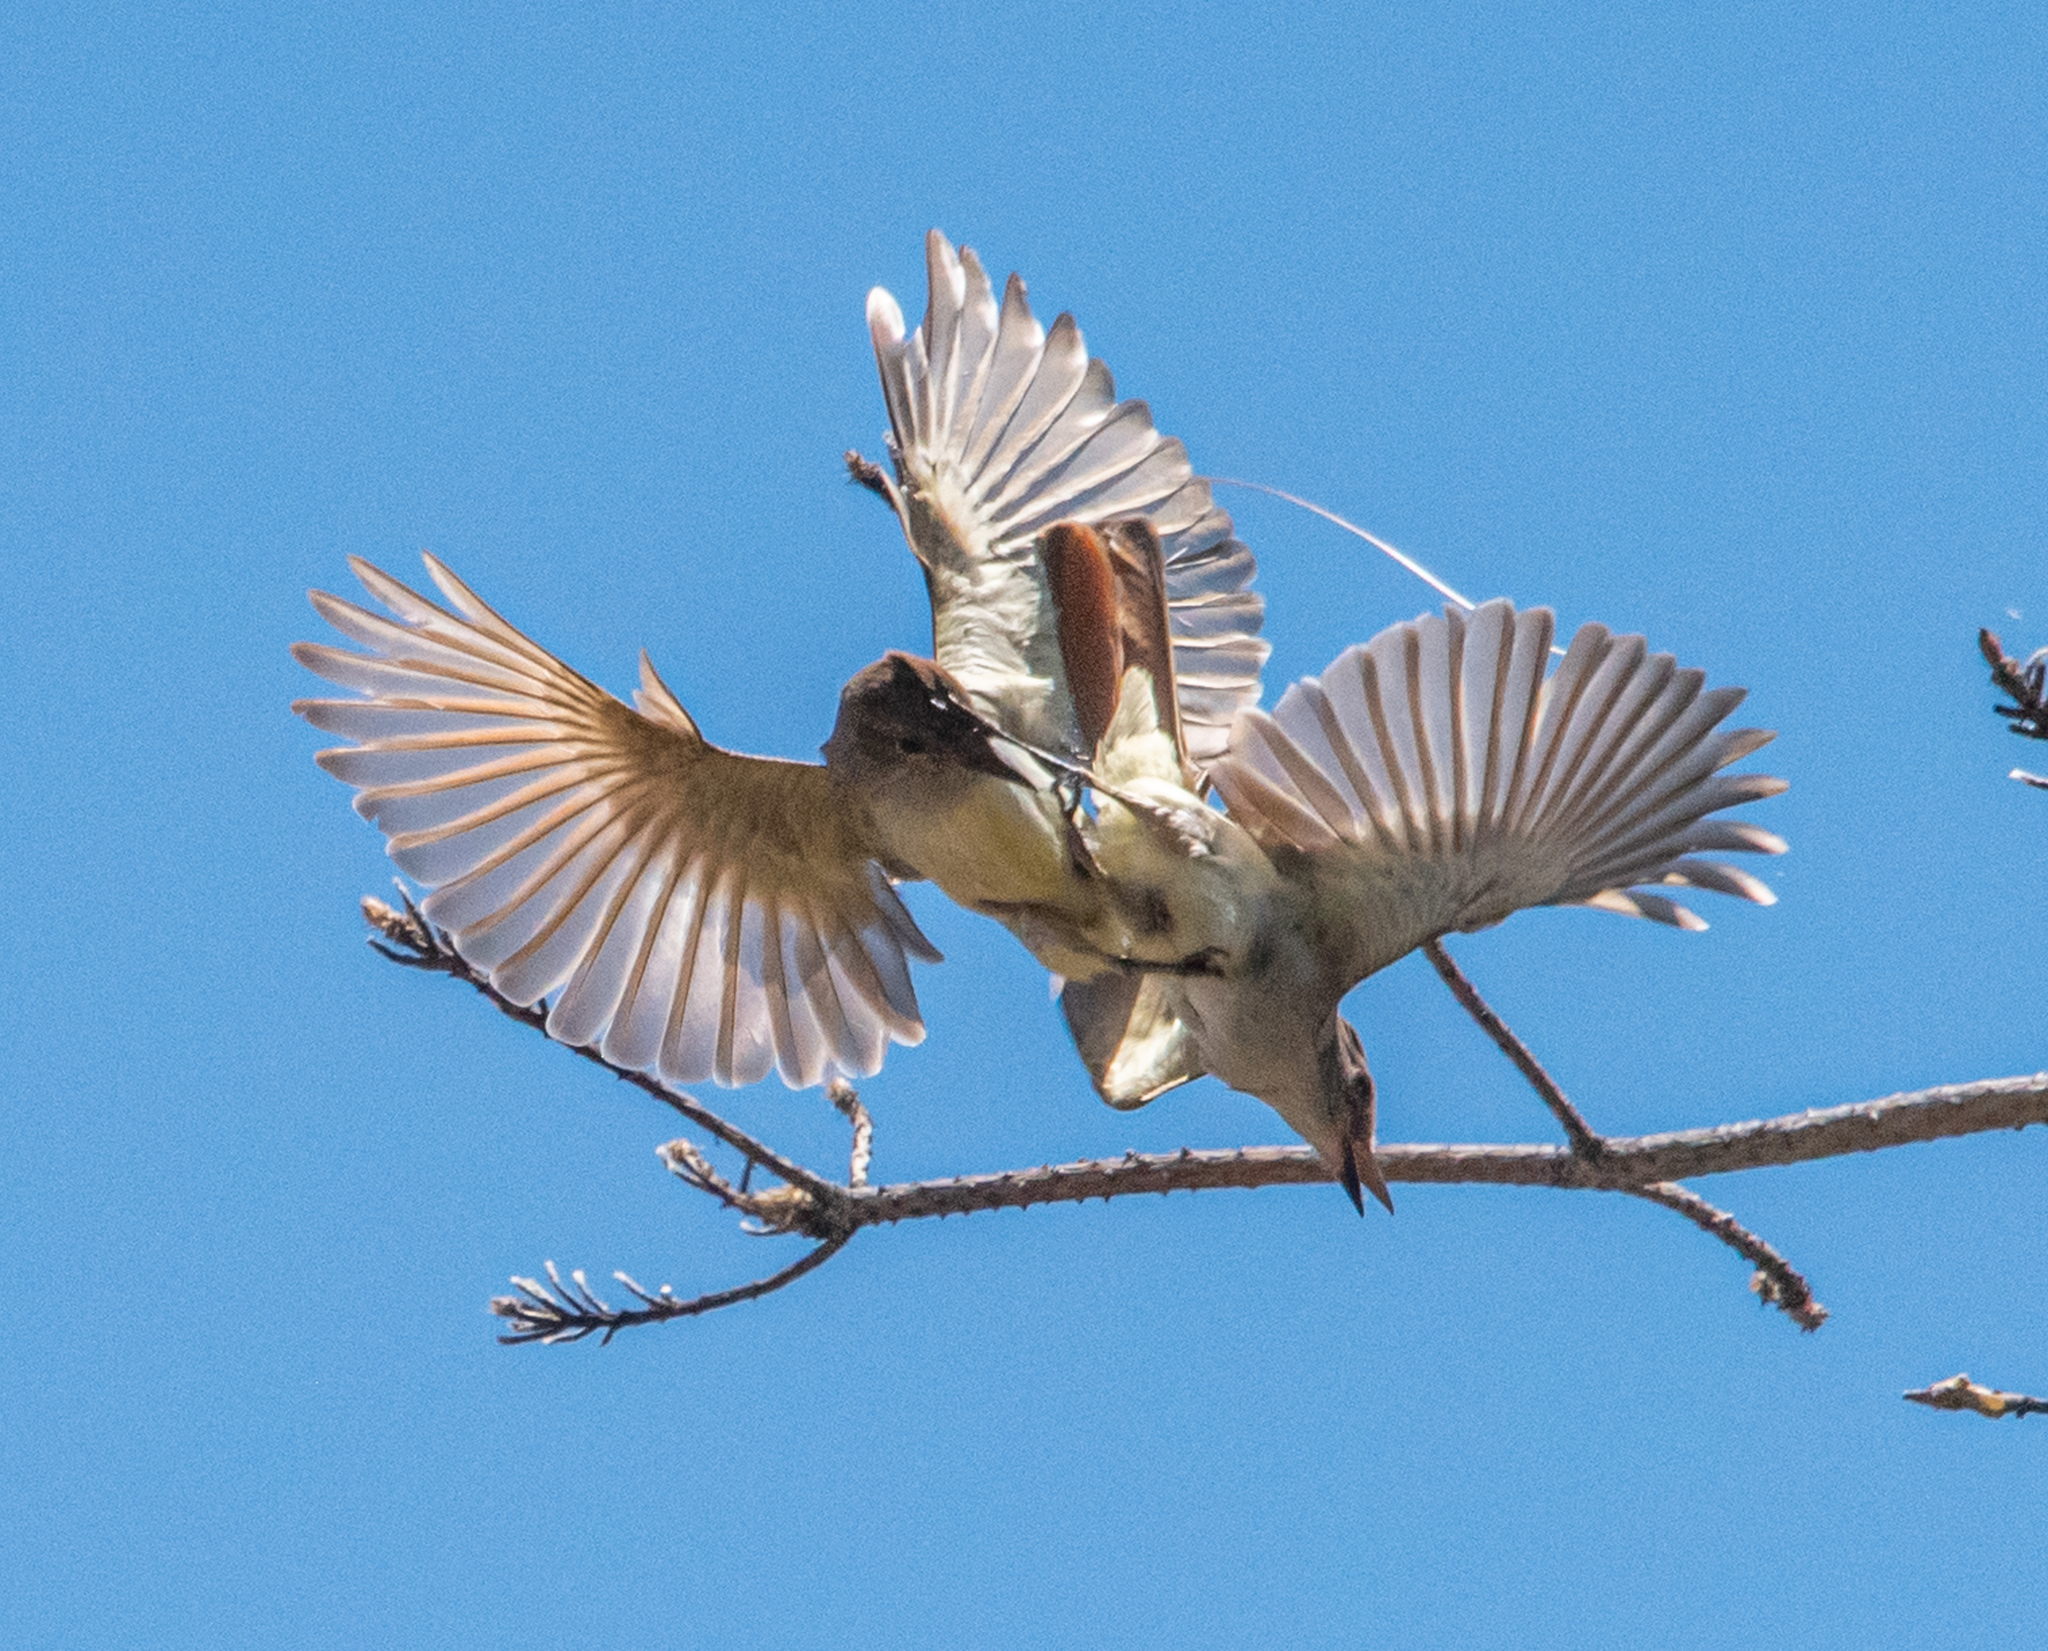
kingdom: Animalia
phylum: Chordata
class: Aves
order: Passeriformes
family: Tyrannidae
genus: Myiarchus
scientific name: Myiarchus cinerascens
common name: Ash-throated flycatcher
